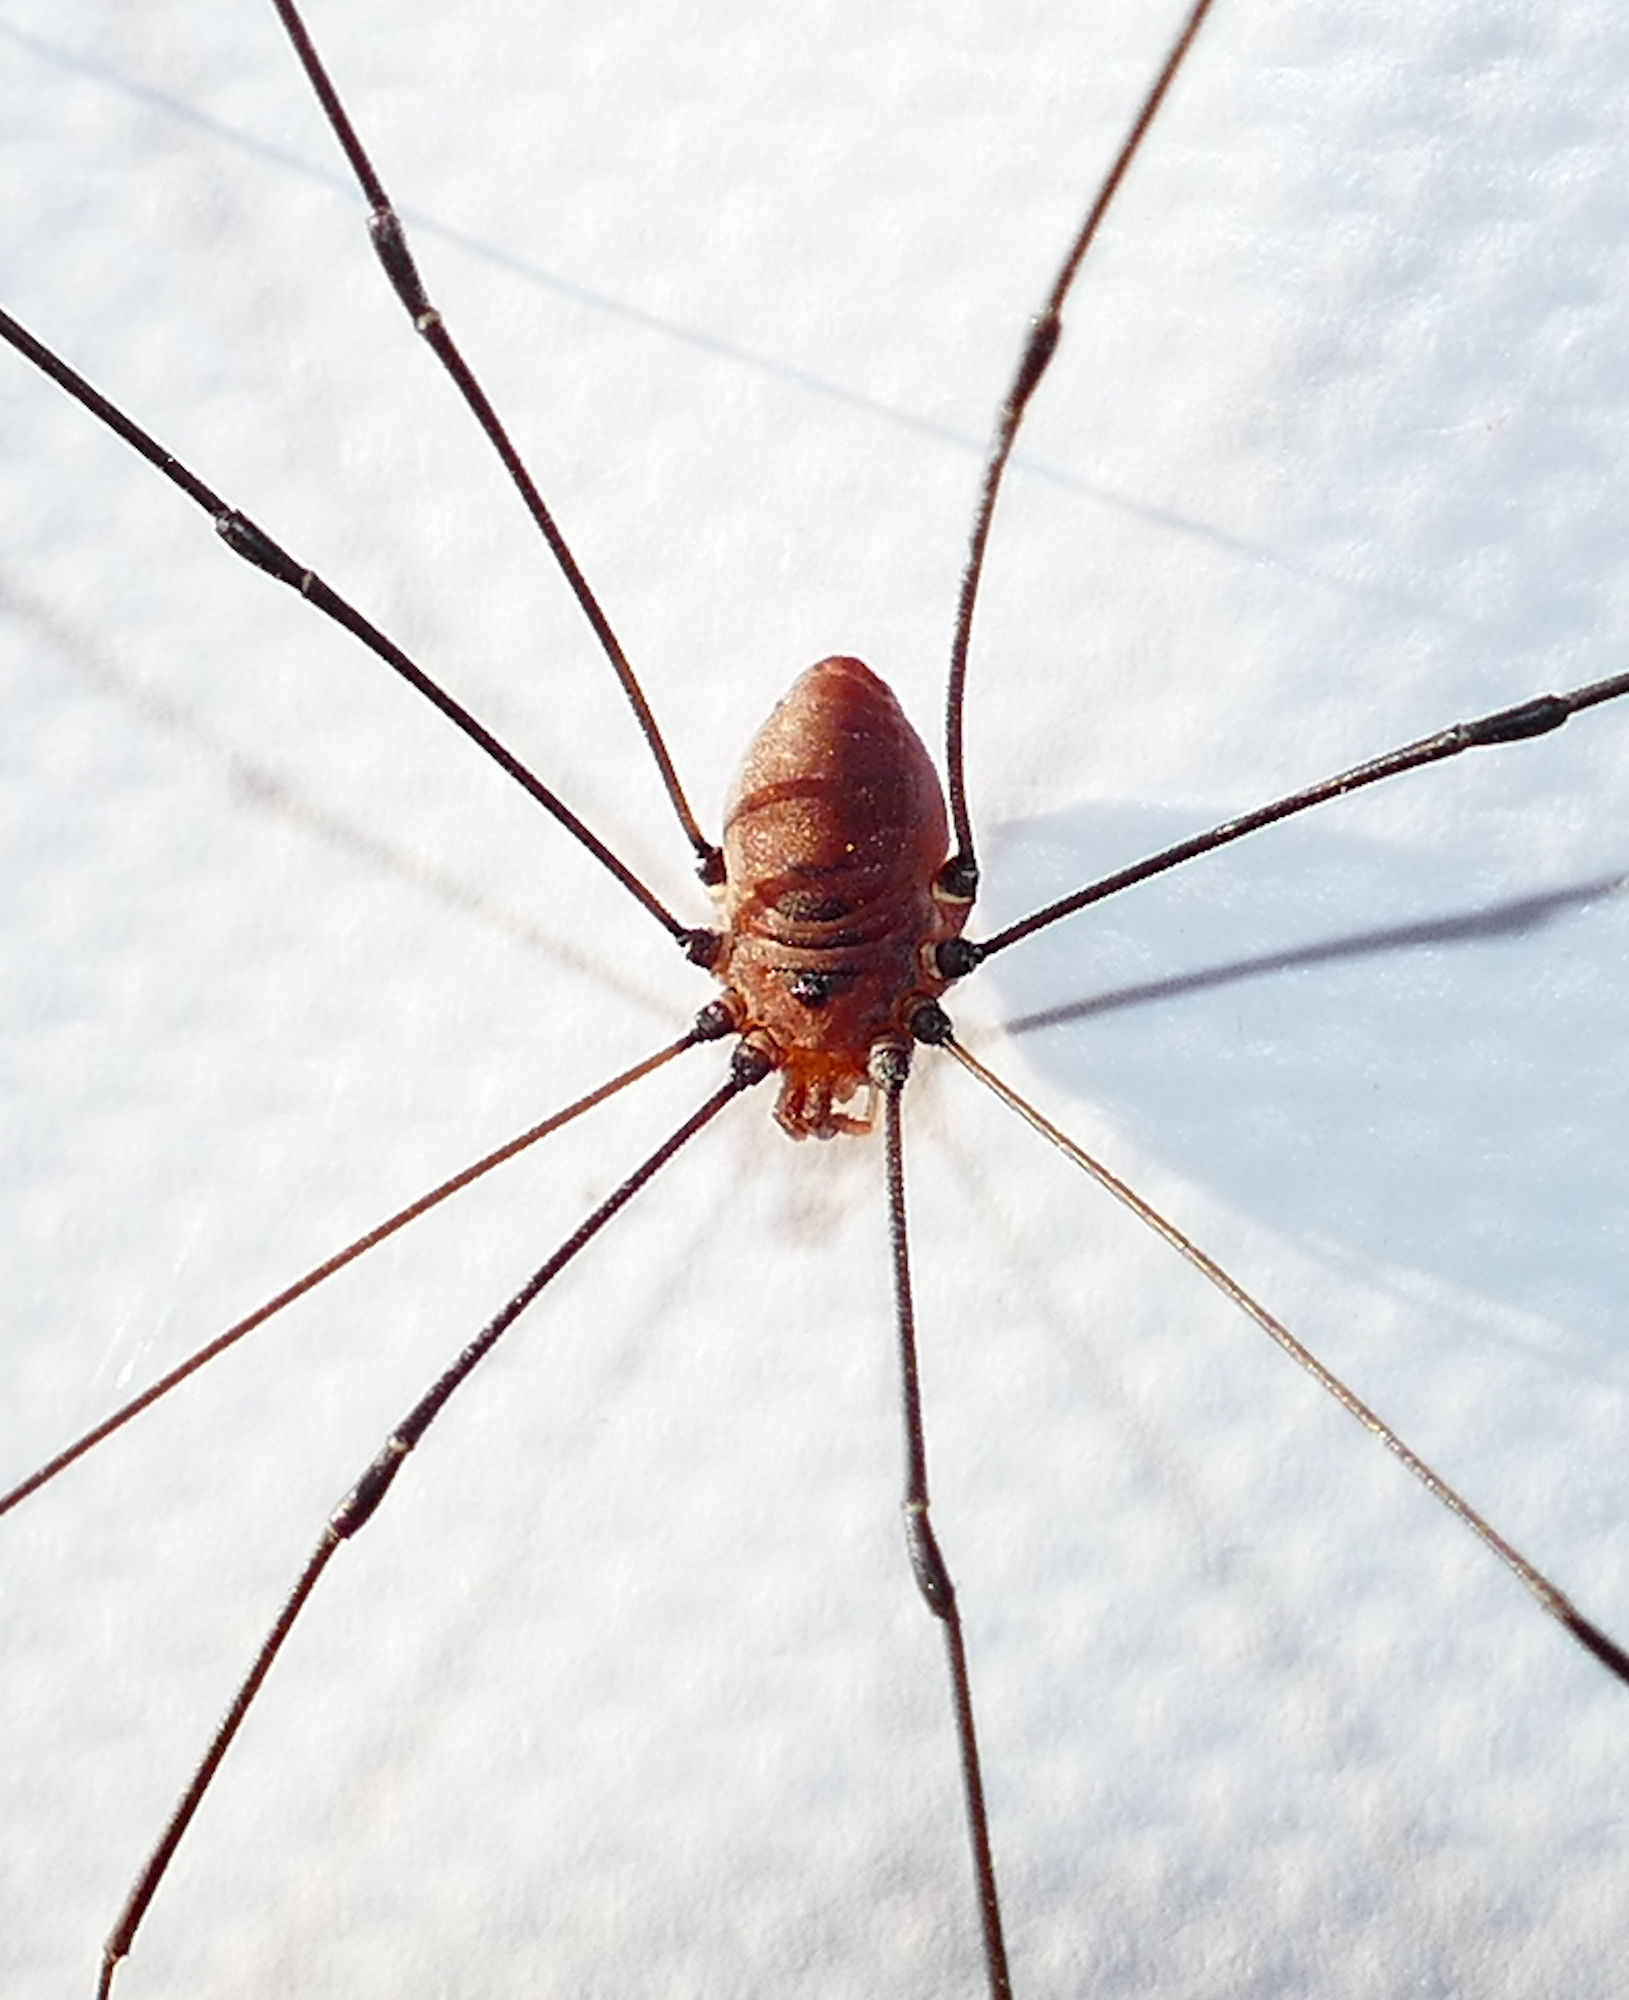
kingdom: Animalia
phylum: Arthropoda
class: Arachnida
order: Opiliones
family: Sclerosomatidae
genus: Leiobunum
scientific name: Leiobunum vittatum
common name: Eastern harvestman
